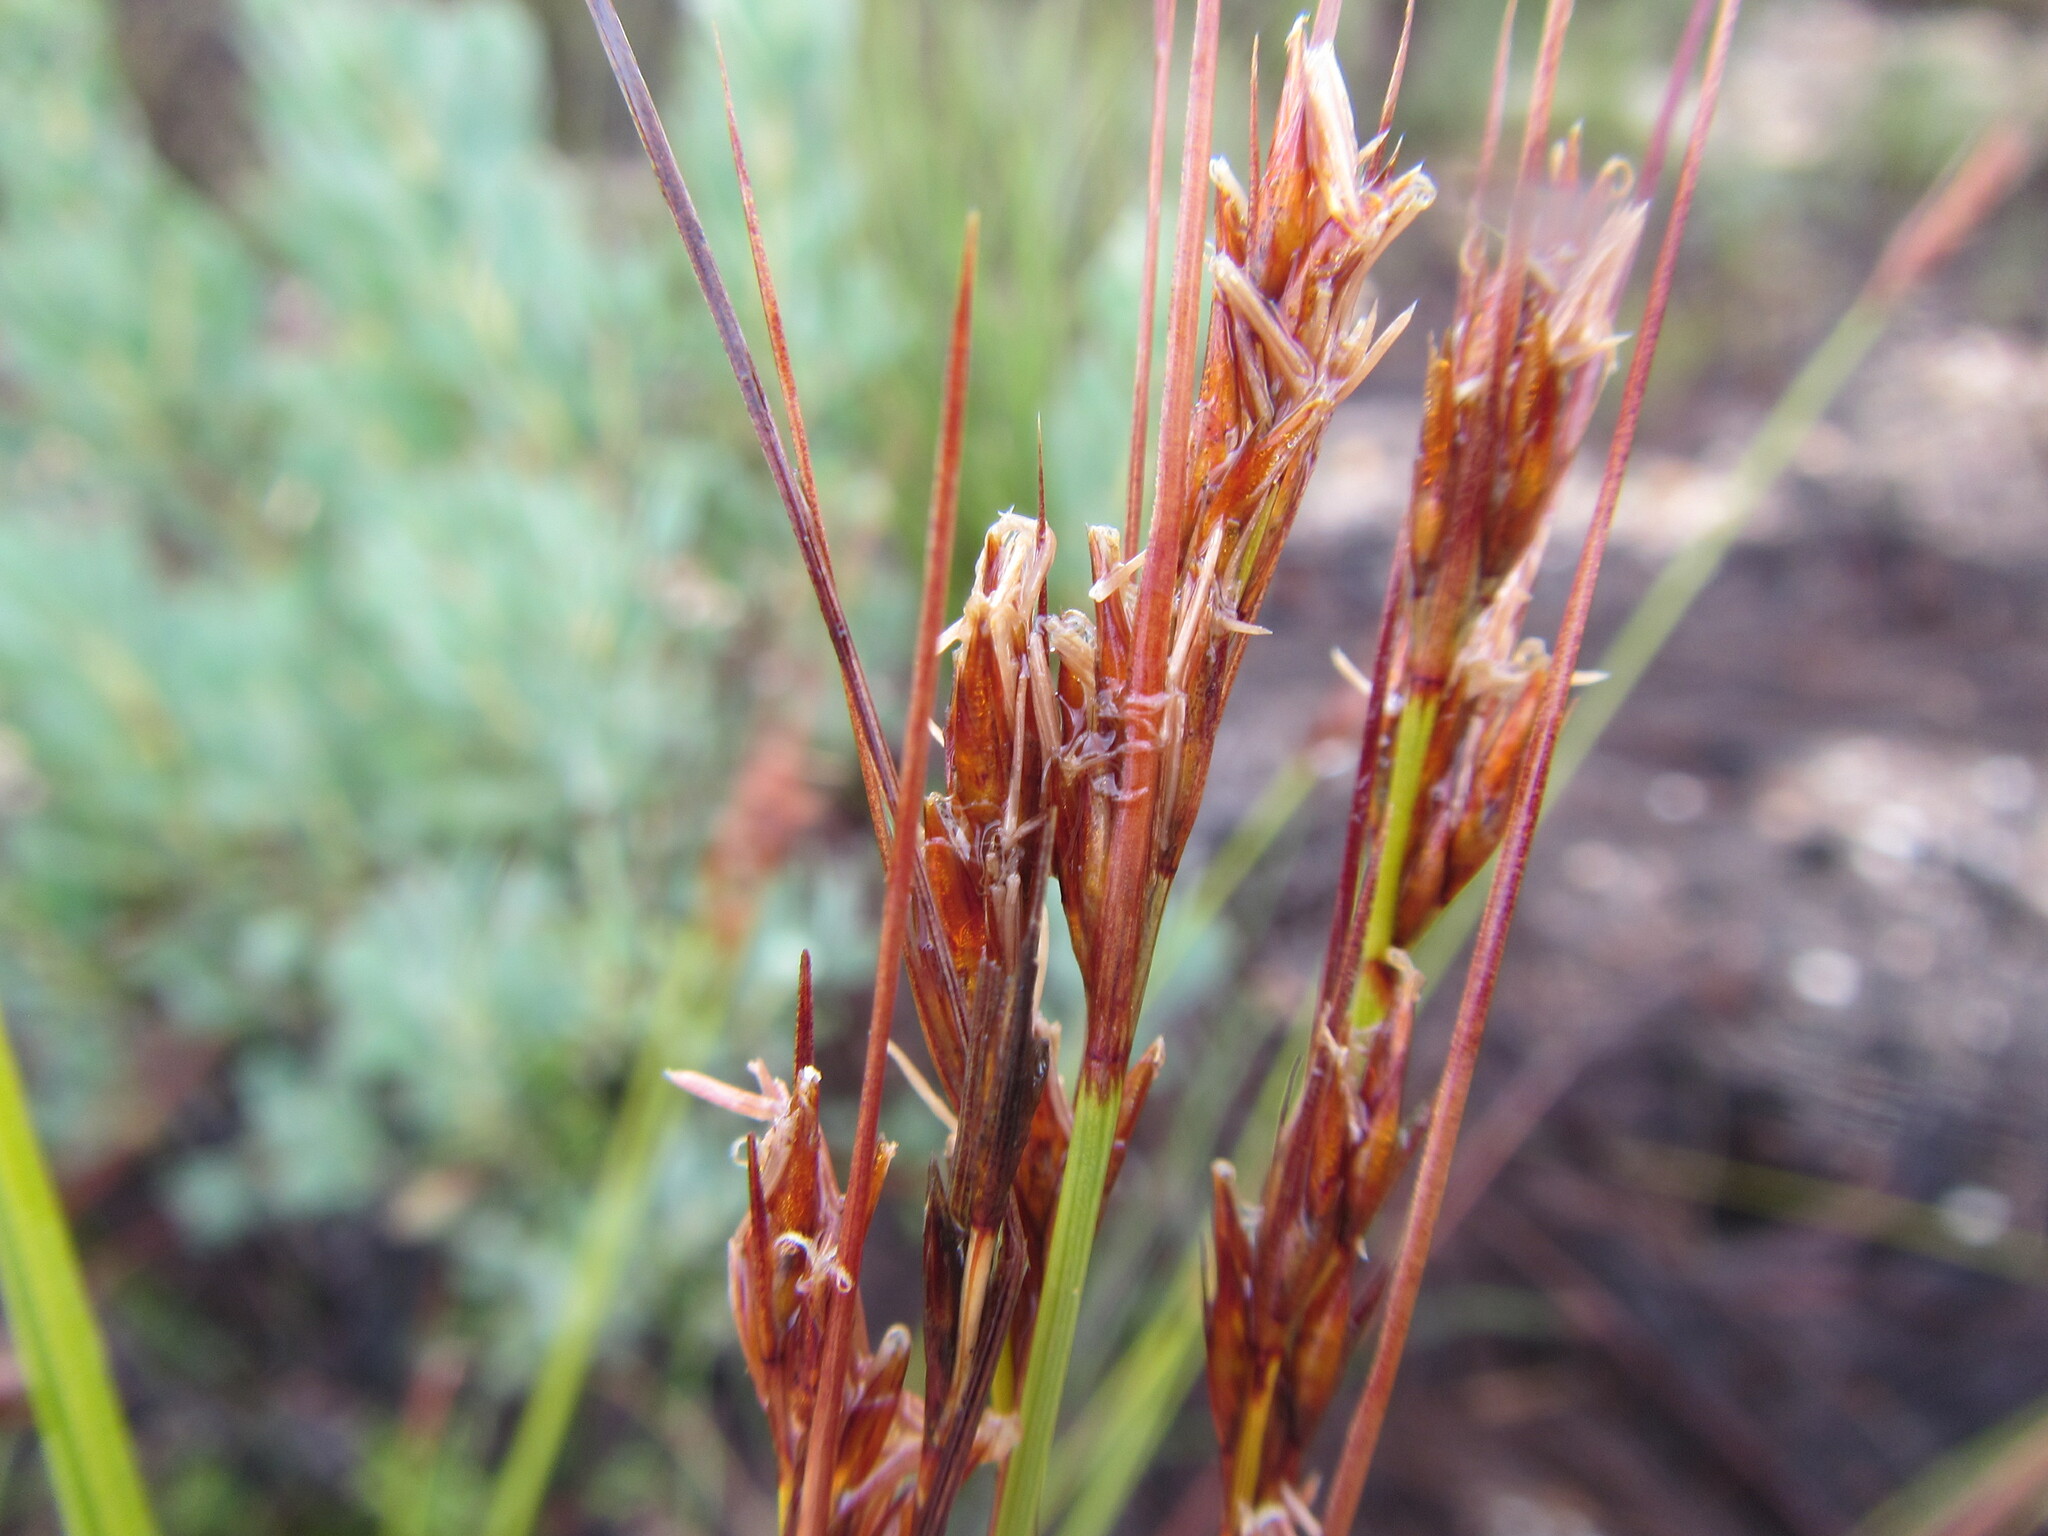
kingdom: Plantae
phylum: Tracheophyta
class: Liliopsida
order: Poales
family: Cyperaceae
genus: Schoenus
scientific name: Schoenus pseudoloreus
